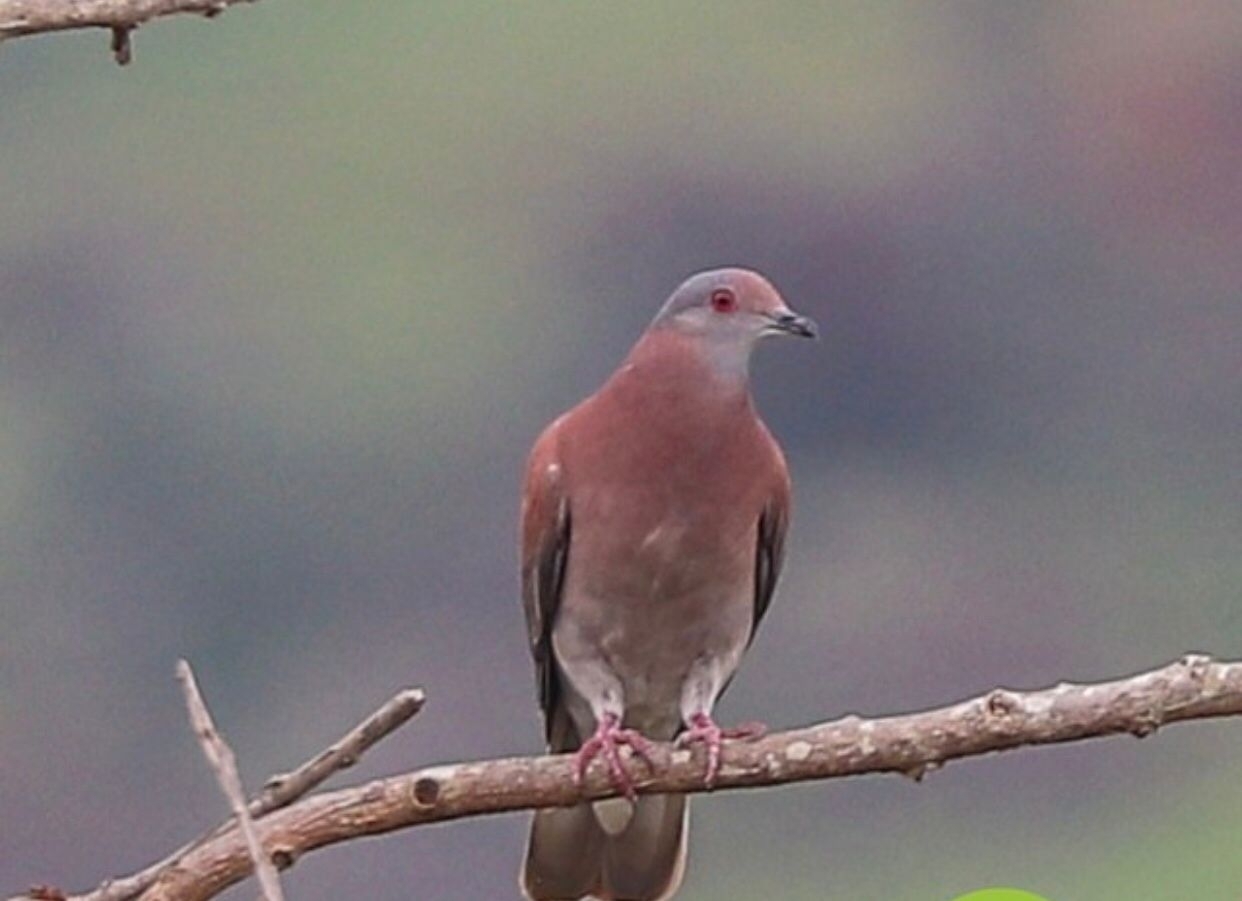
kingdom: Animalia
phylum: Chordata
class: Aves
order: Columbiformes
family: Columbidae
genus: Patagioenas
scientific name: Patagioenas cayennensis
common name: Pale-vented pigeon
